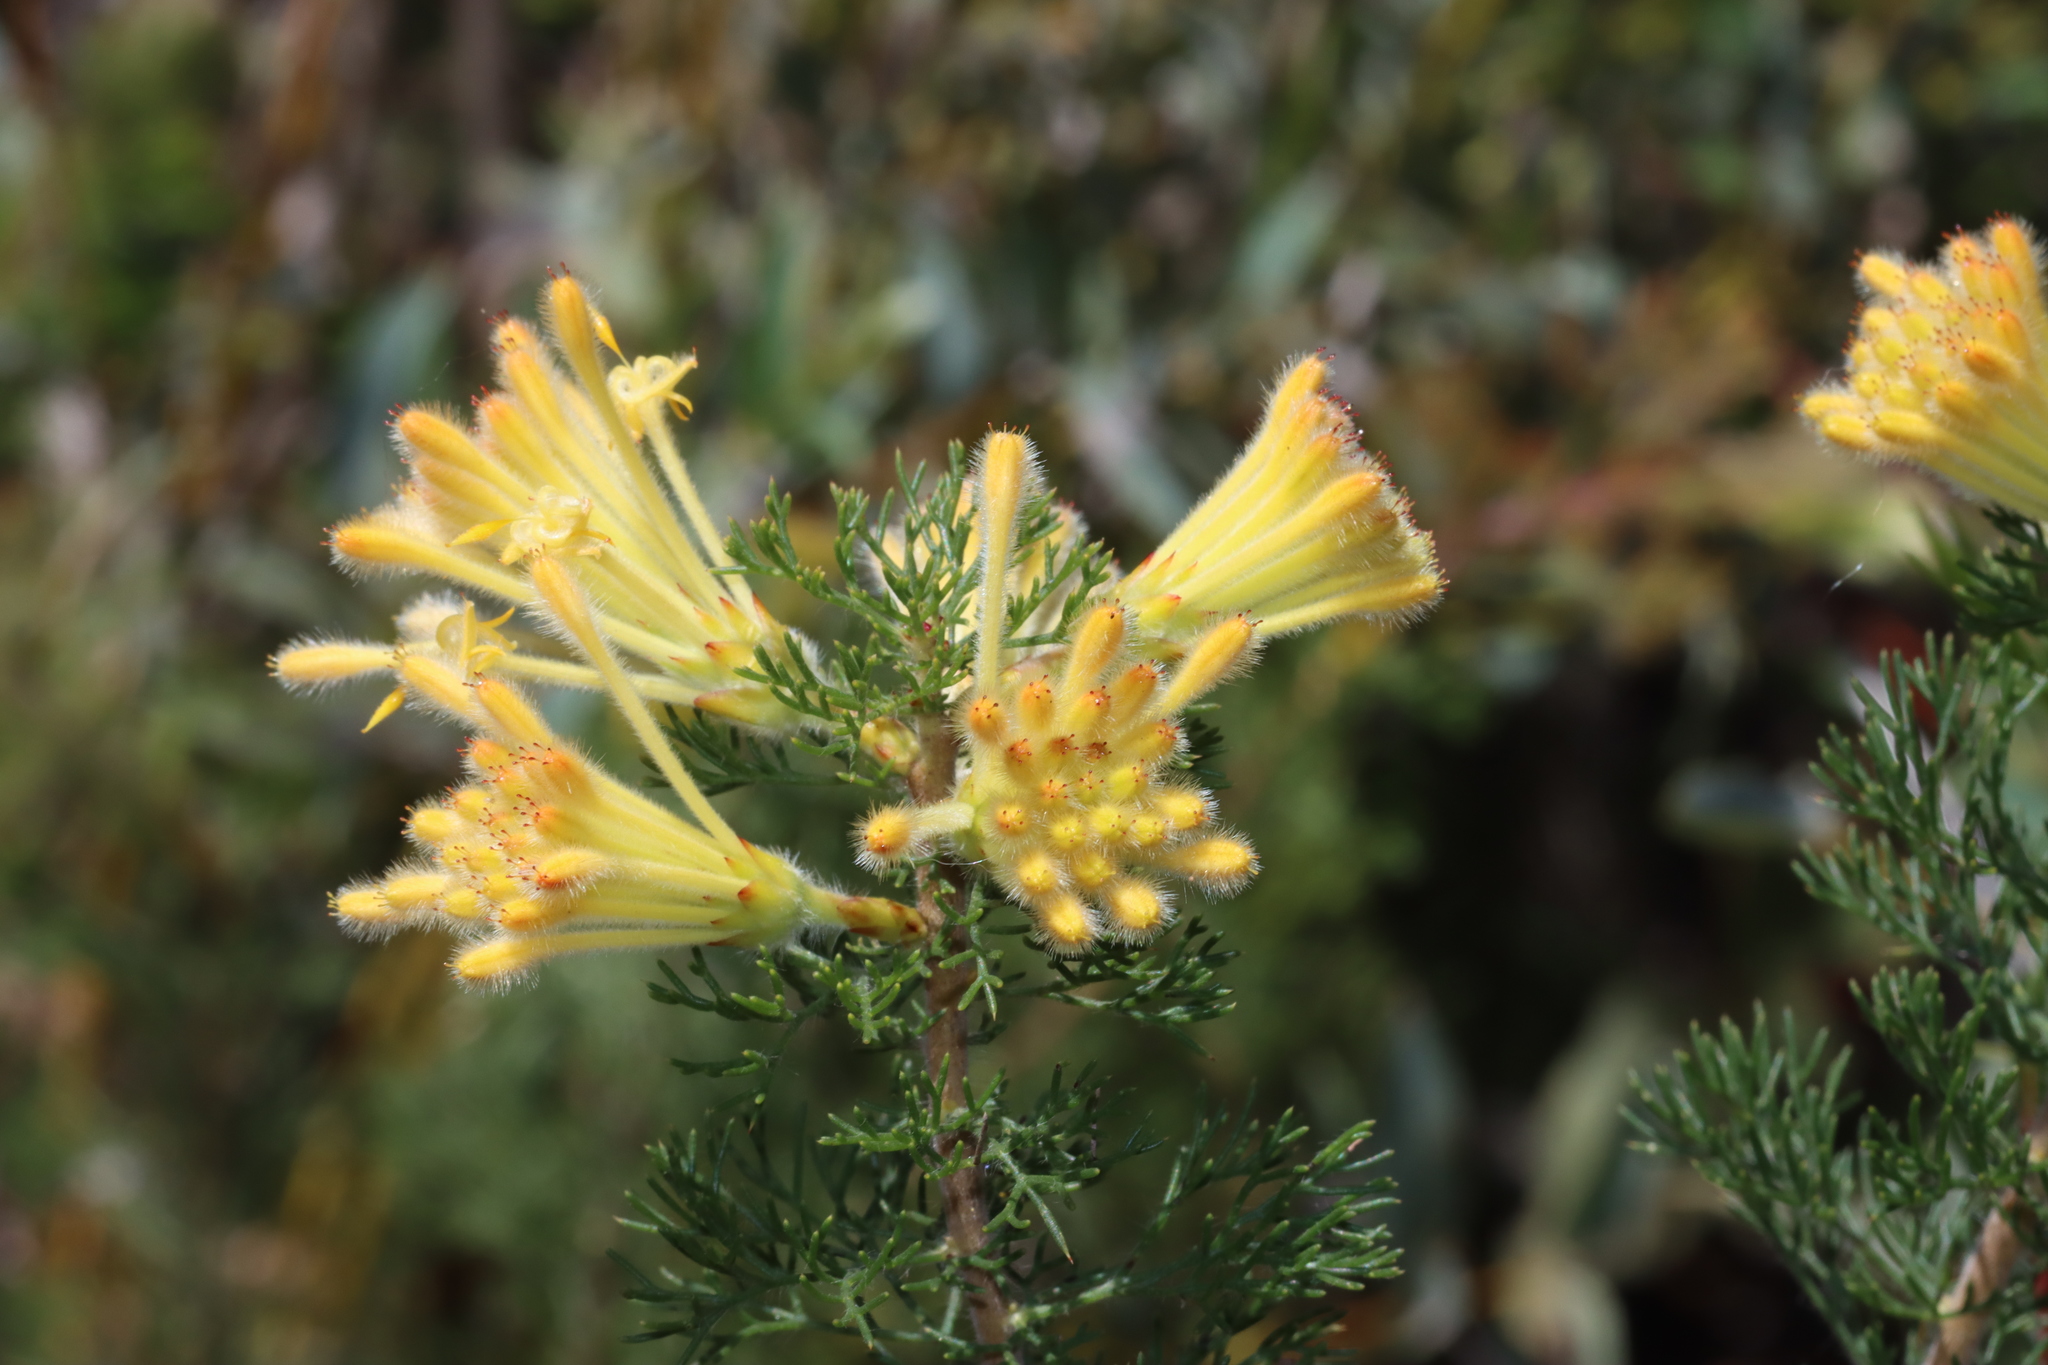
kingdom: Plantae
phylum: Tracheophyta
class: Magnoliopsida
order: Proteales
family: Proteaceae
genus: Petrophile
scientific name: Petrophile serruriae
